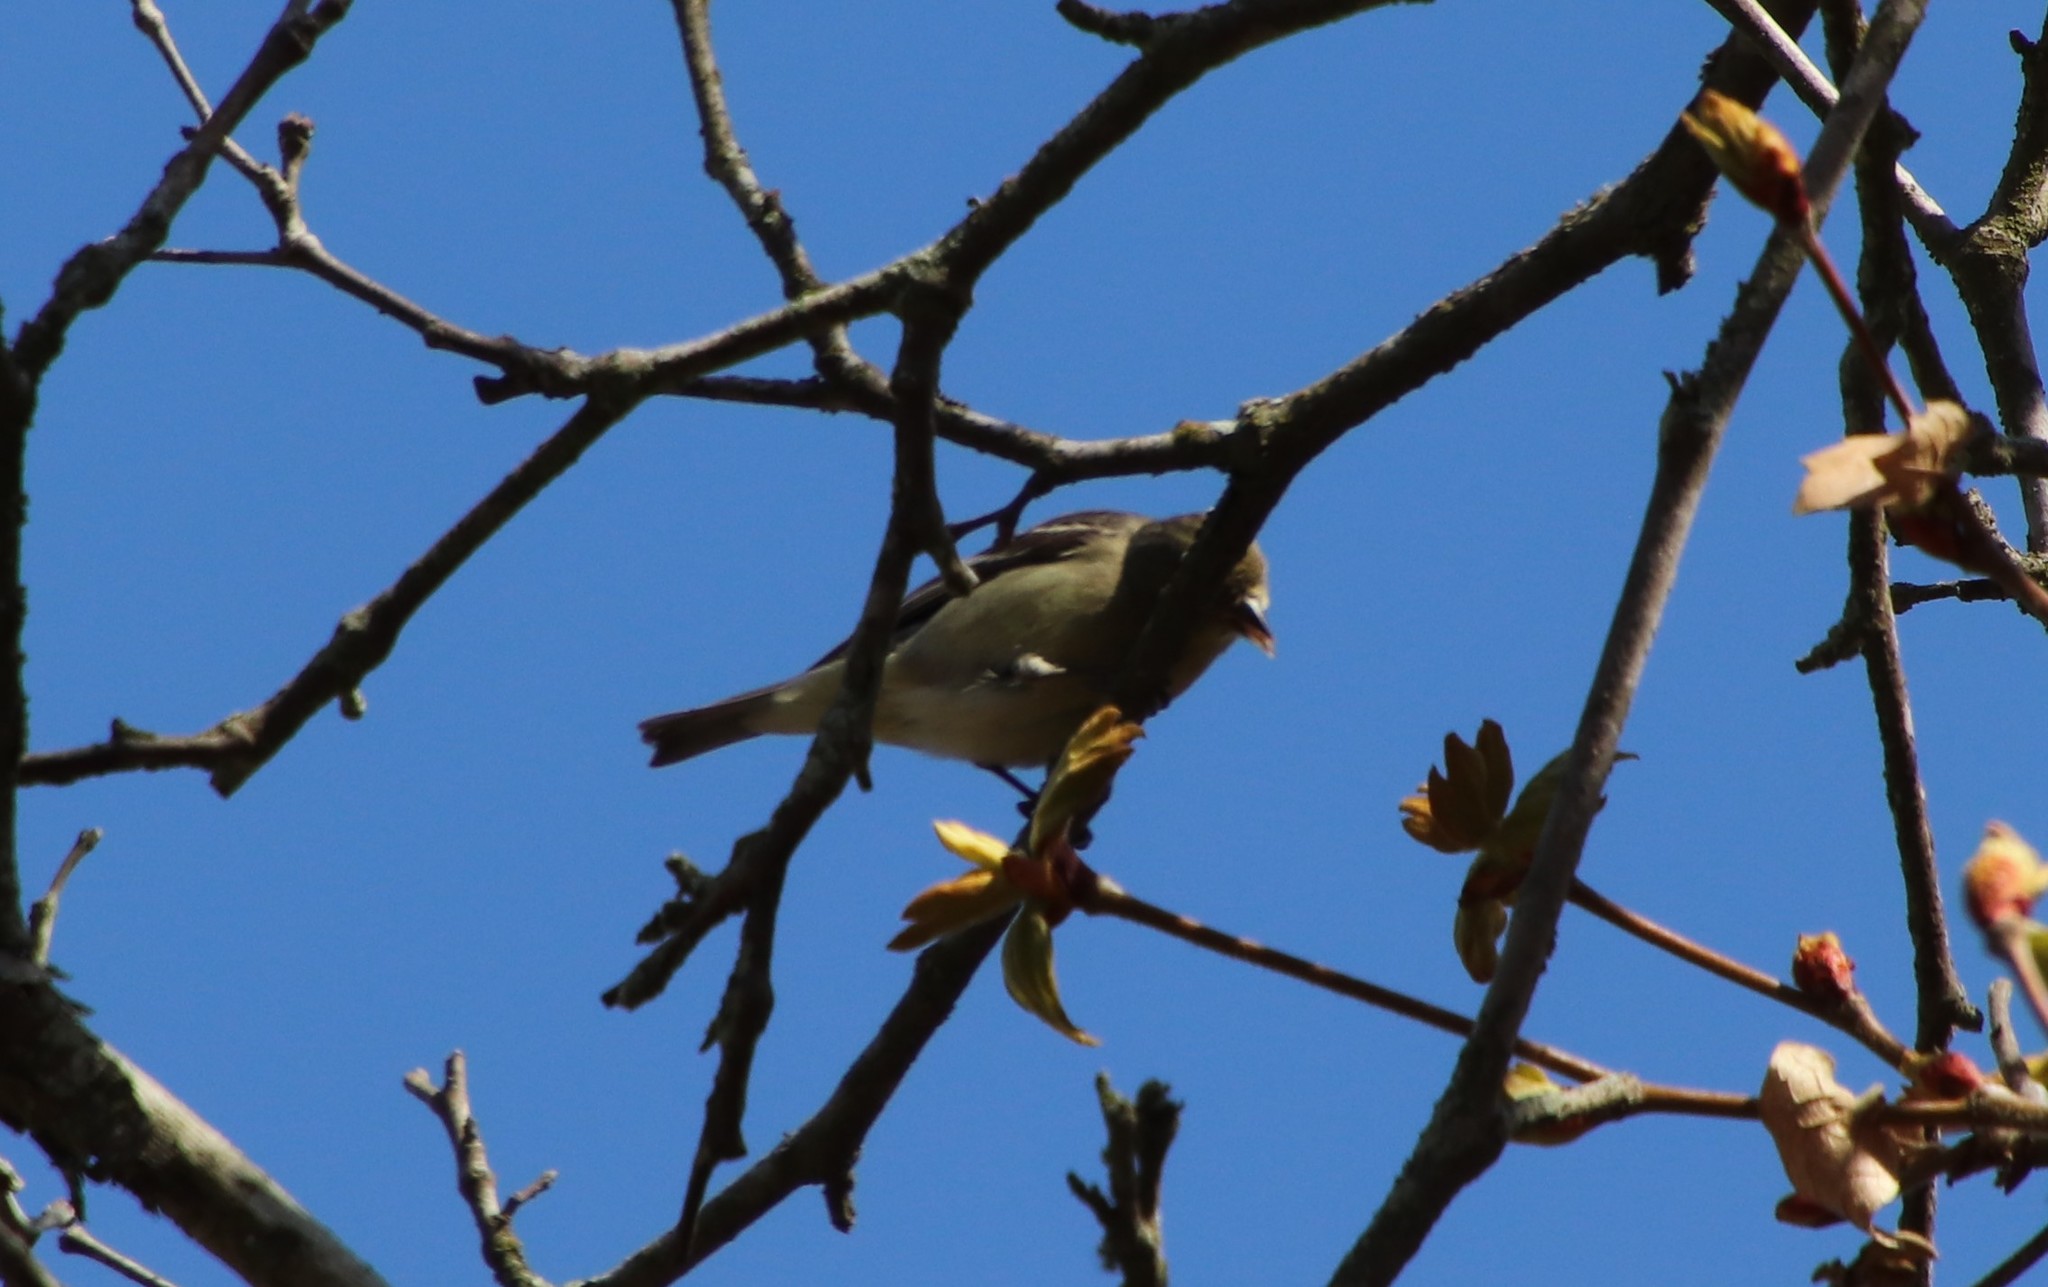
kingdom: Animalia
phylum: Chordata
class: Aves
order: Passeriformes
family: Fringillidae
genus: Spinus
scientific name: Spinus psaltria
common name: Lesser goldfinch
